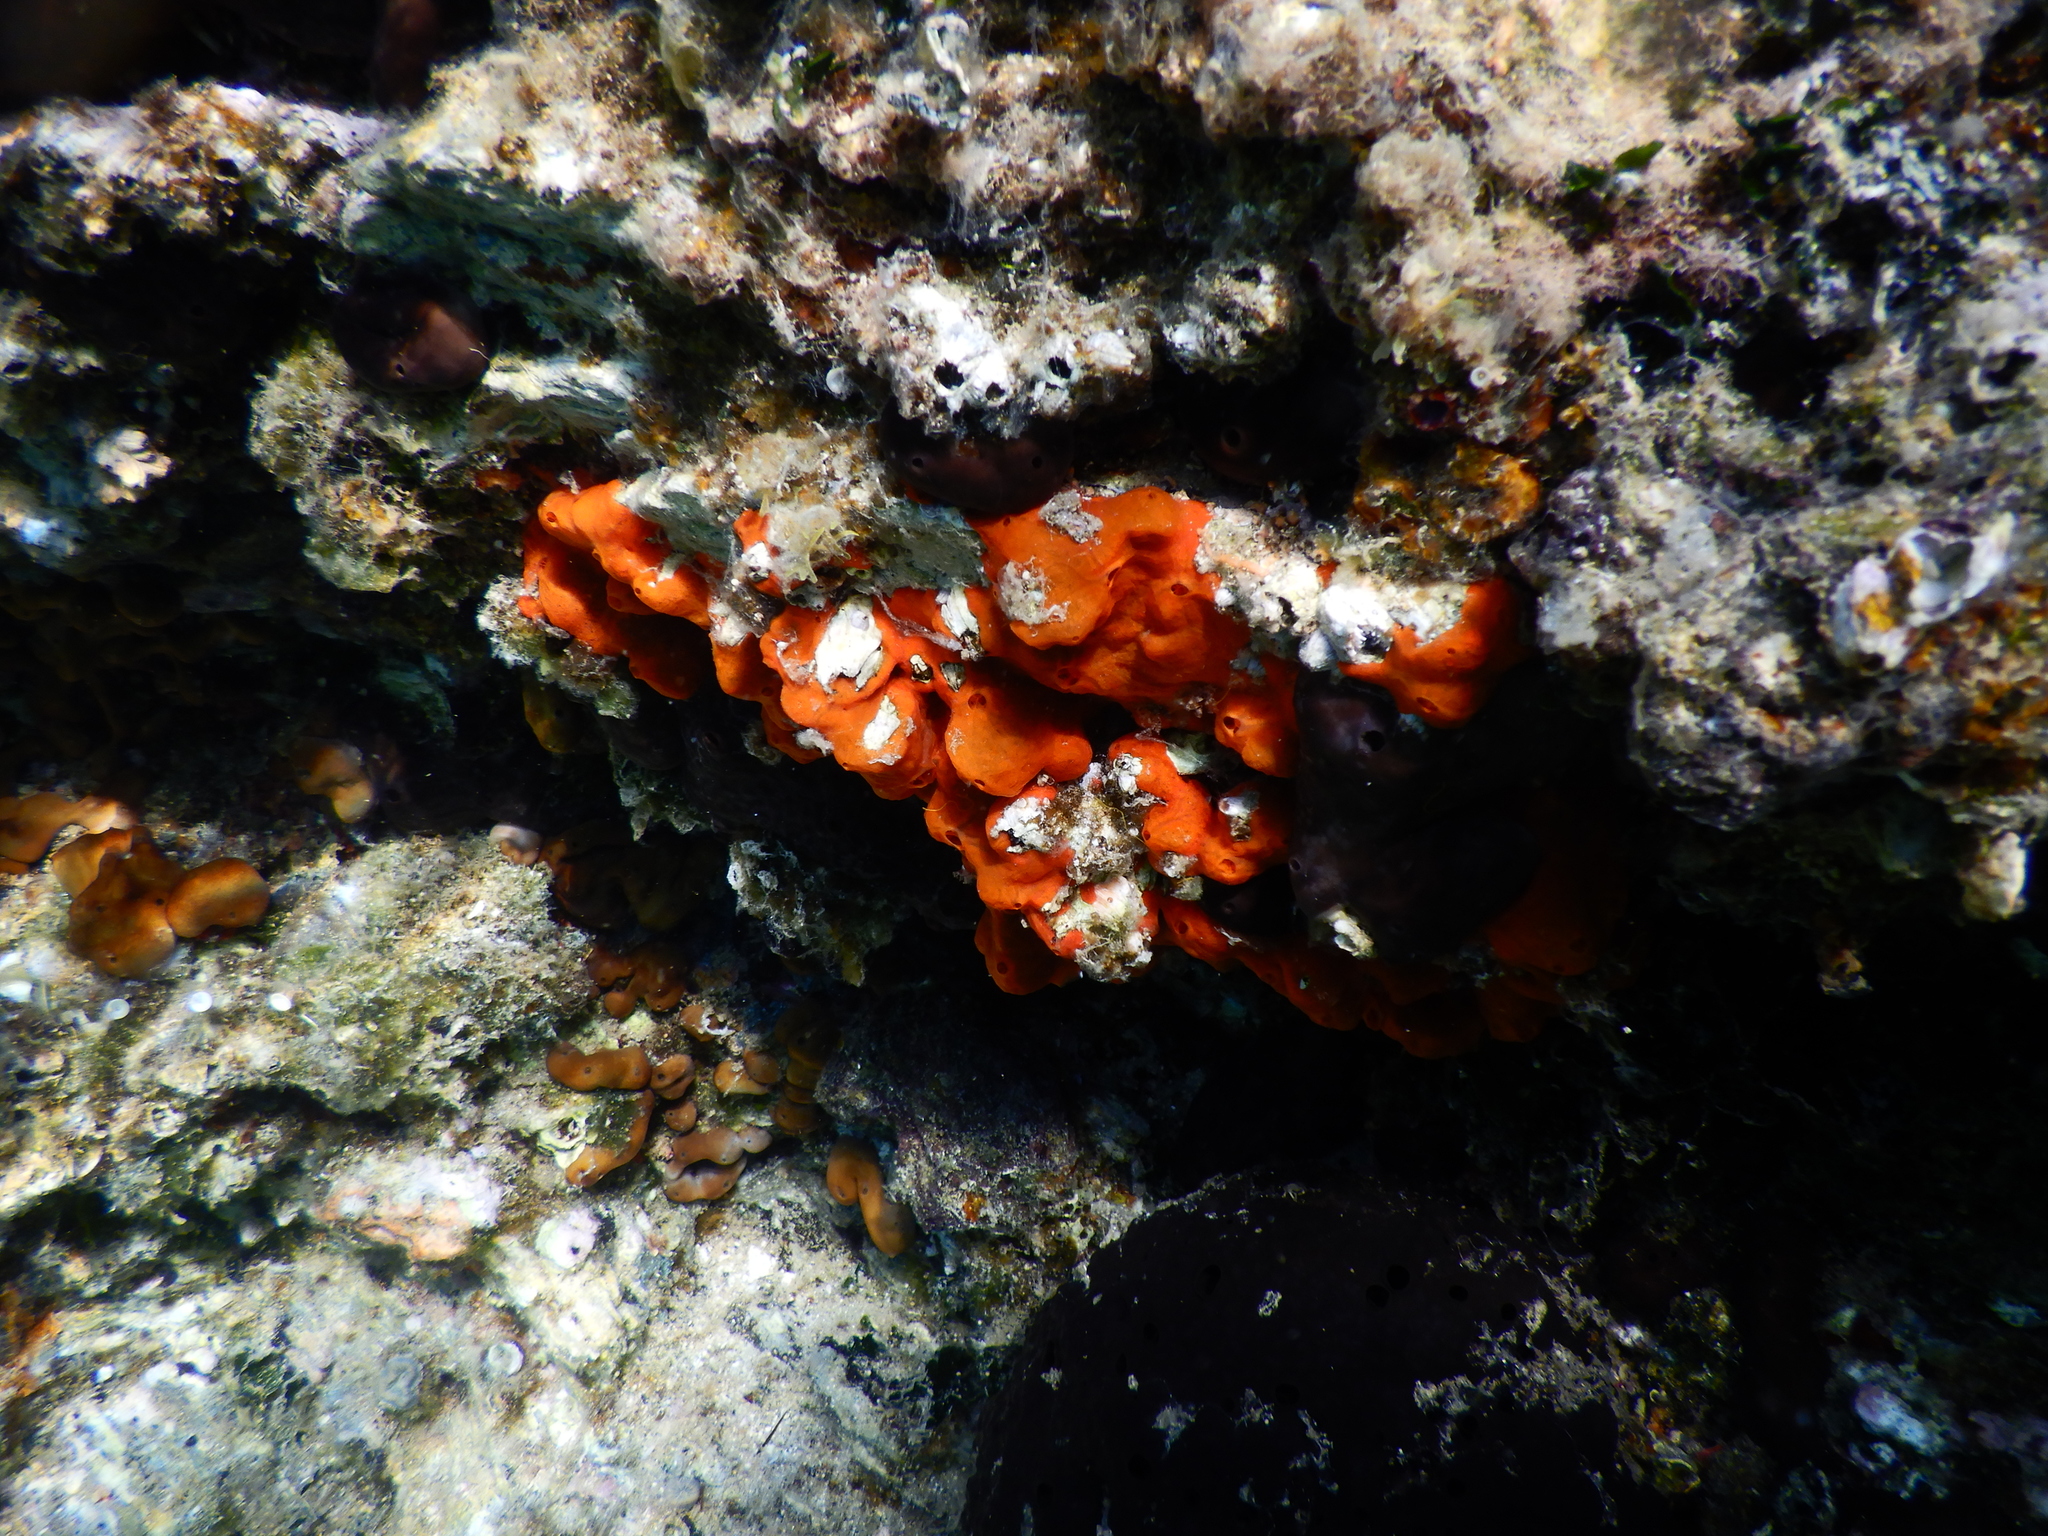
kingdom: Animalia
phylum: Porifera
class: Demospongiae
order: Poecilosclerida
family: Crambeidae
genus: Crambe
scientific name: Crambe crambe
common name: Orange-red encrusting sponge
